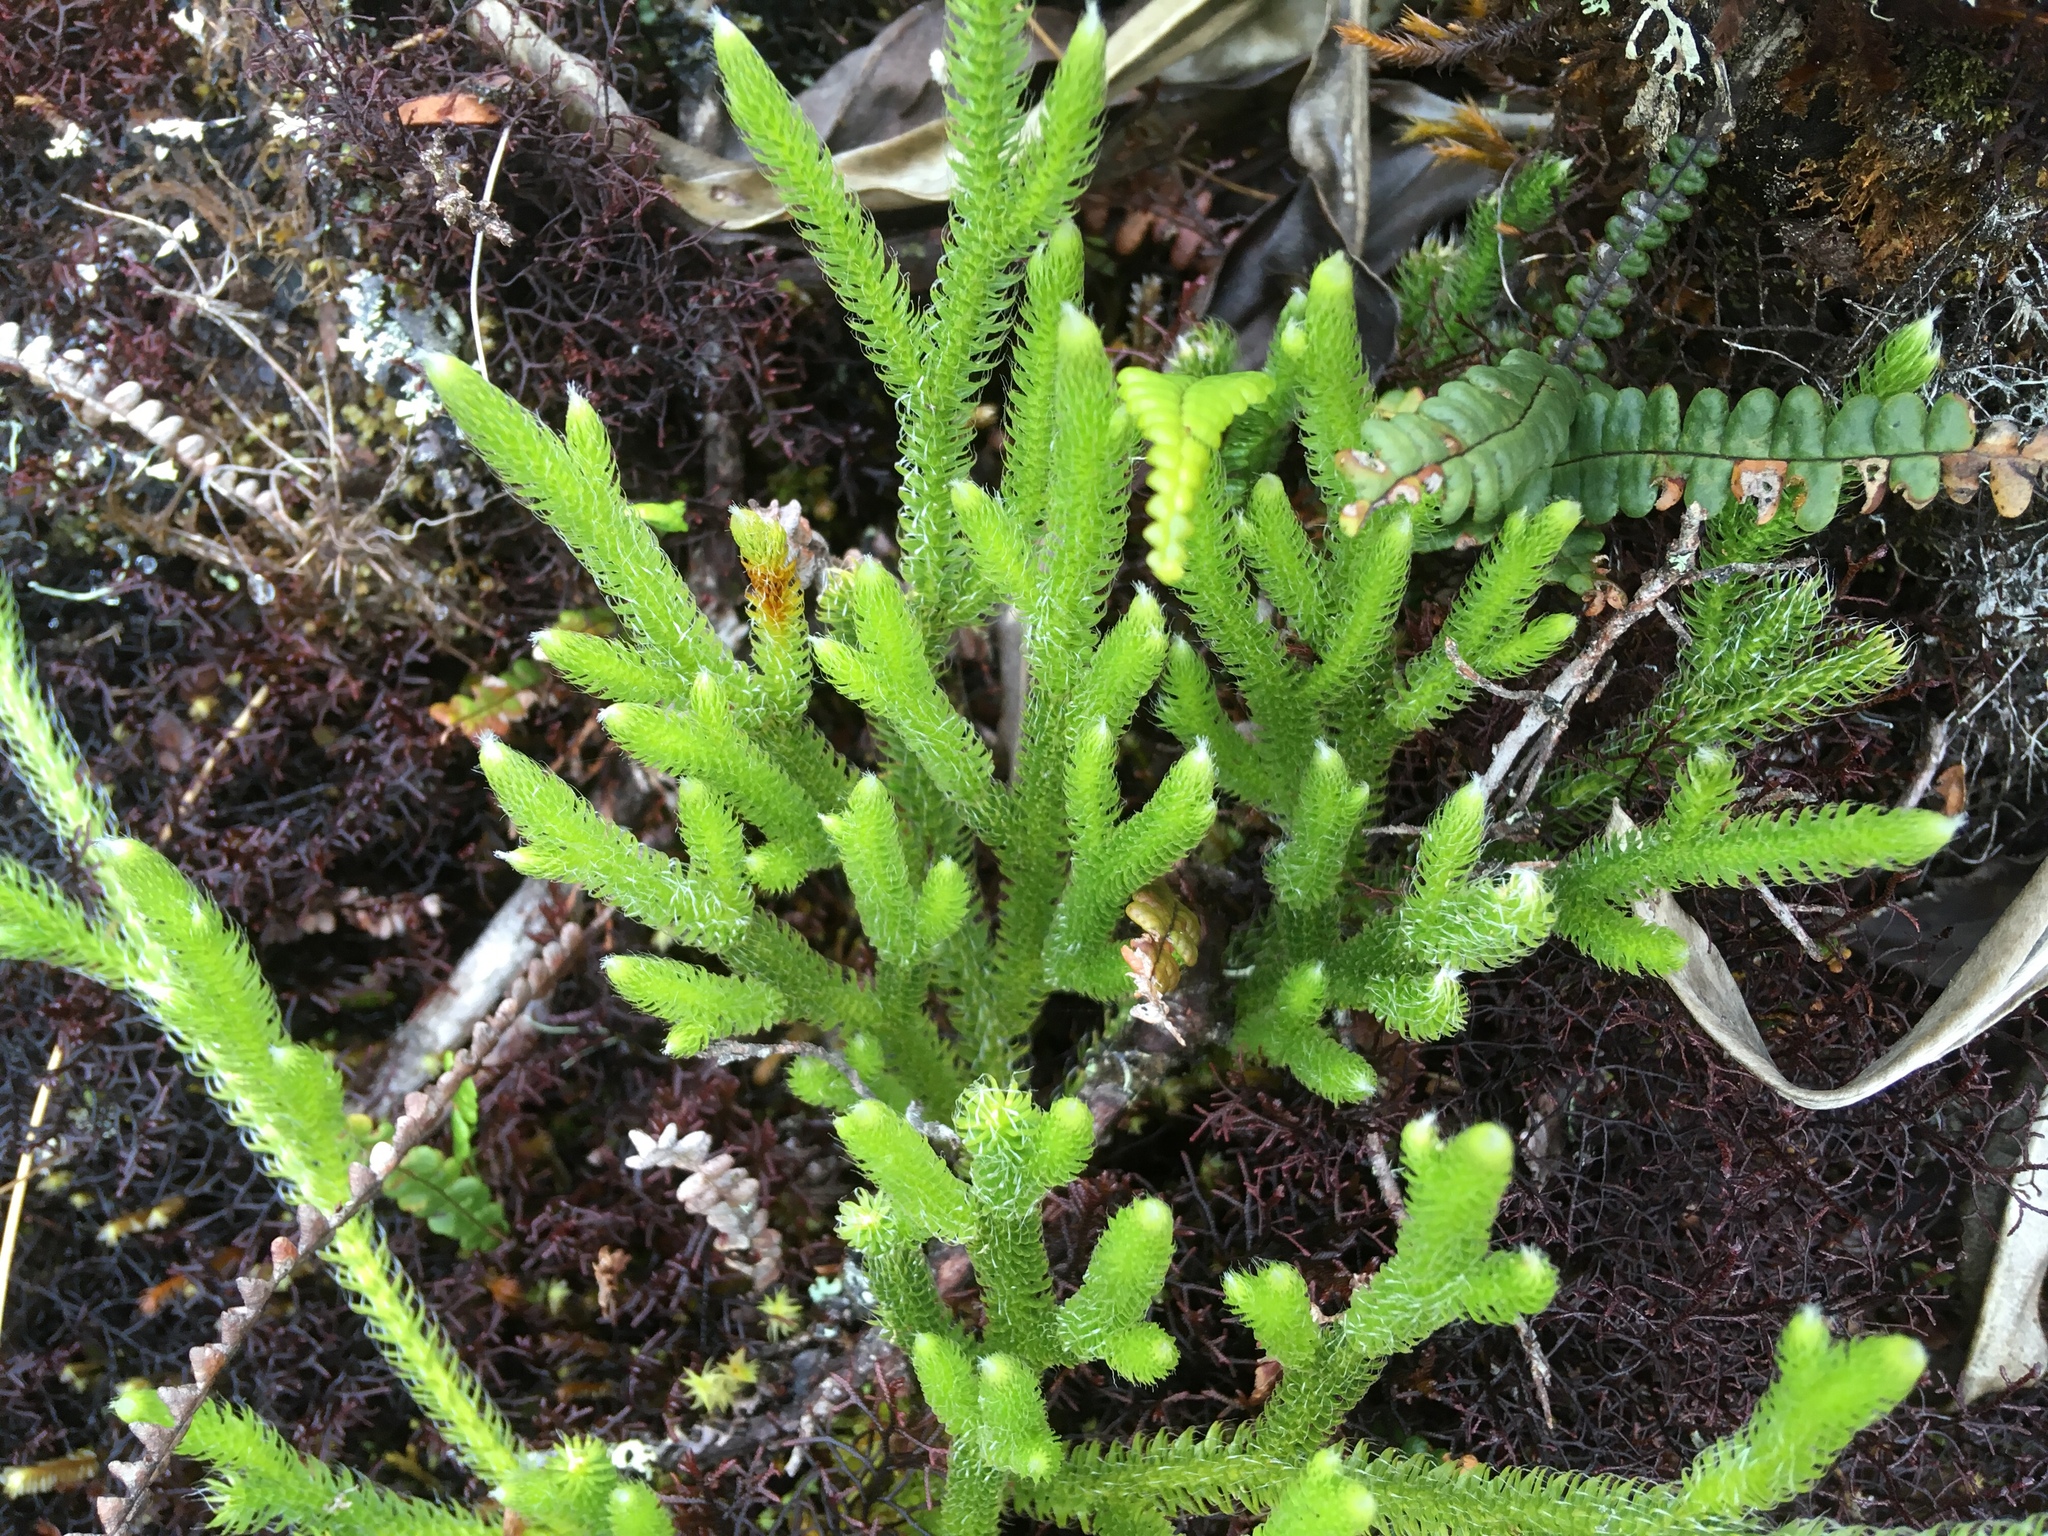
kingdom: Plantae
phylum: Tracheophyta
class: Lycopodiopsida
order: Lycopodiales
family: Lycopodiaceae
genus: Lycopodium
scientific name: Lycopodium clavatum
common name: Stag's-horn clubmoss
